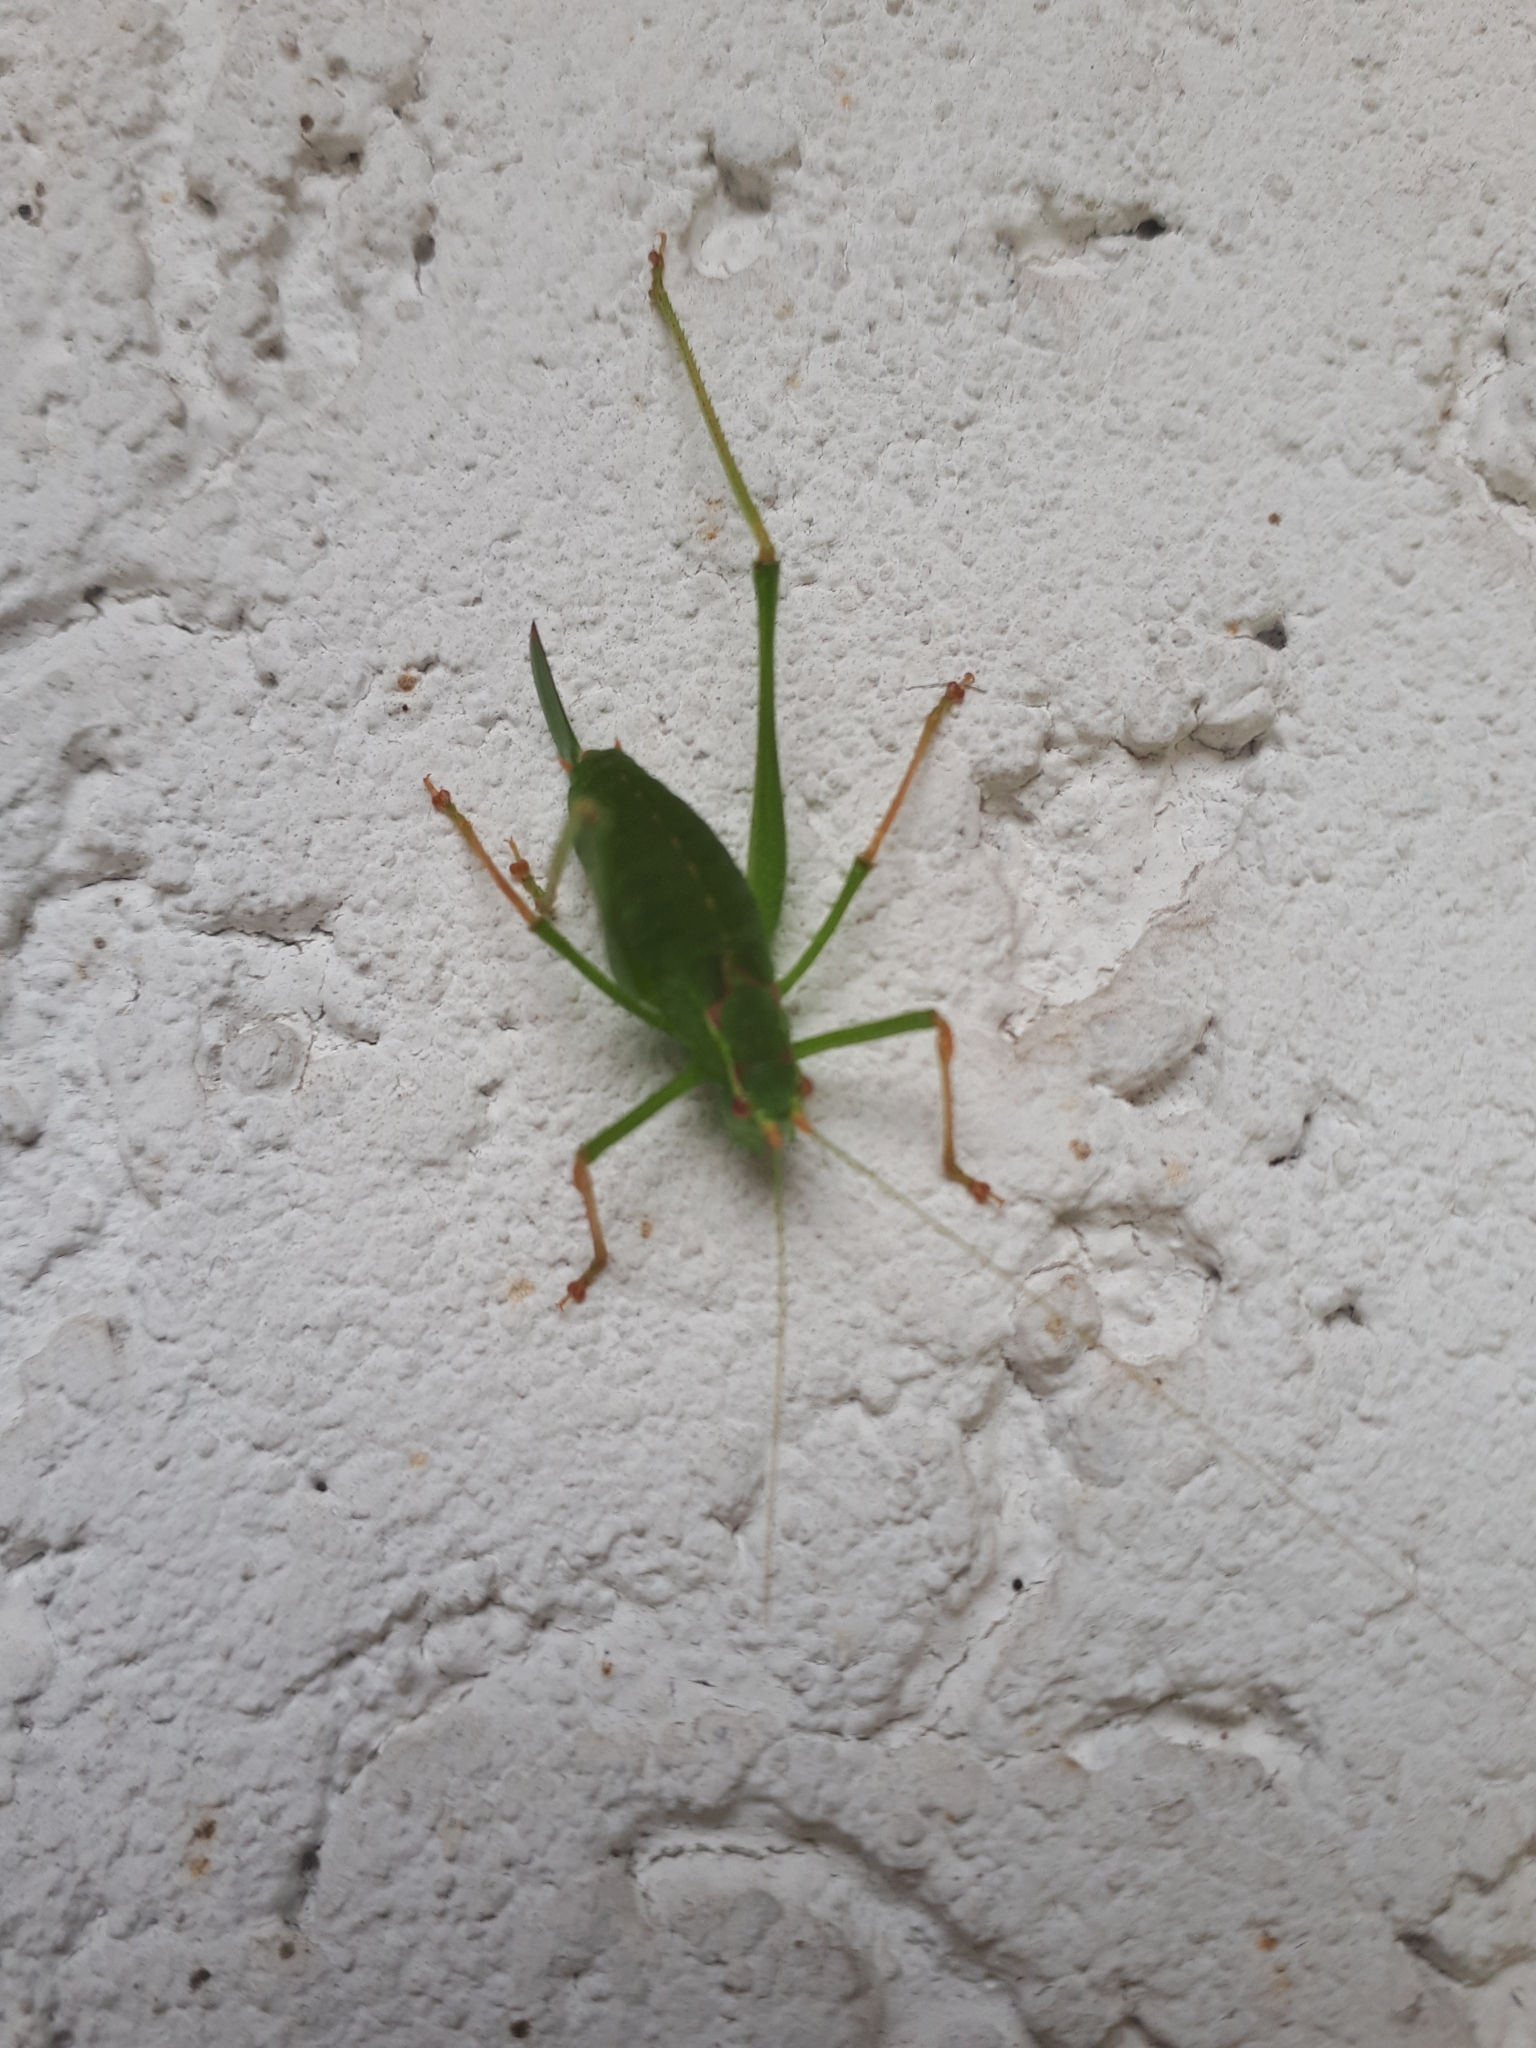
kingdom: Animalia
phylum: Arthropoda
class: Insecta
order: Orthoptera
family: Tettigoniidae
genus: Leptophyes
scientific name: Leptophyes punctatissima
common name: Speckled bush-cricket
